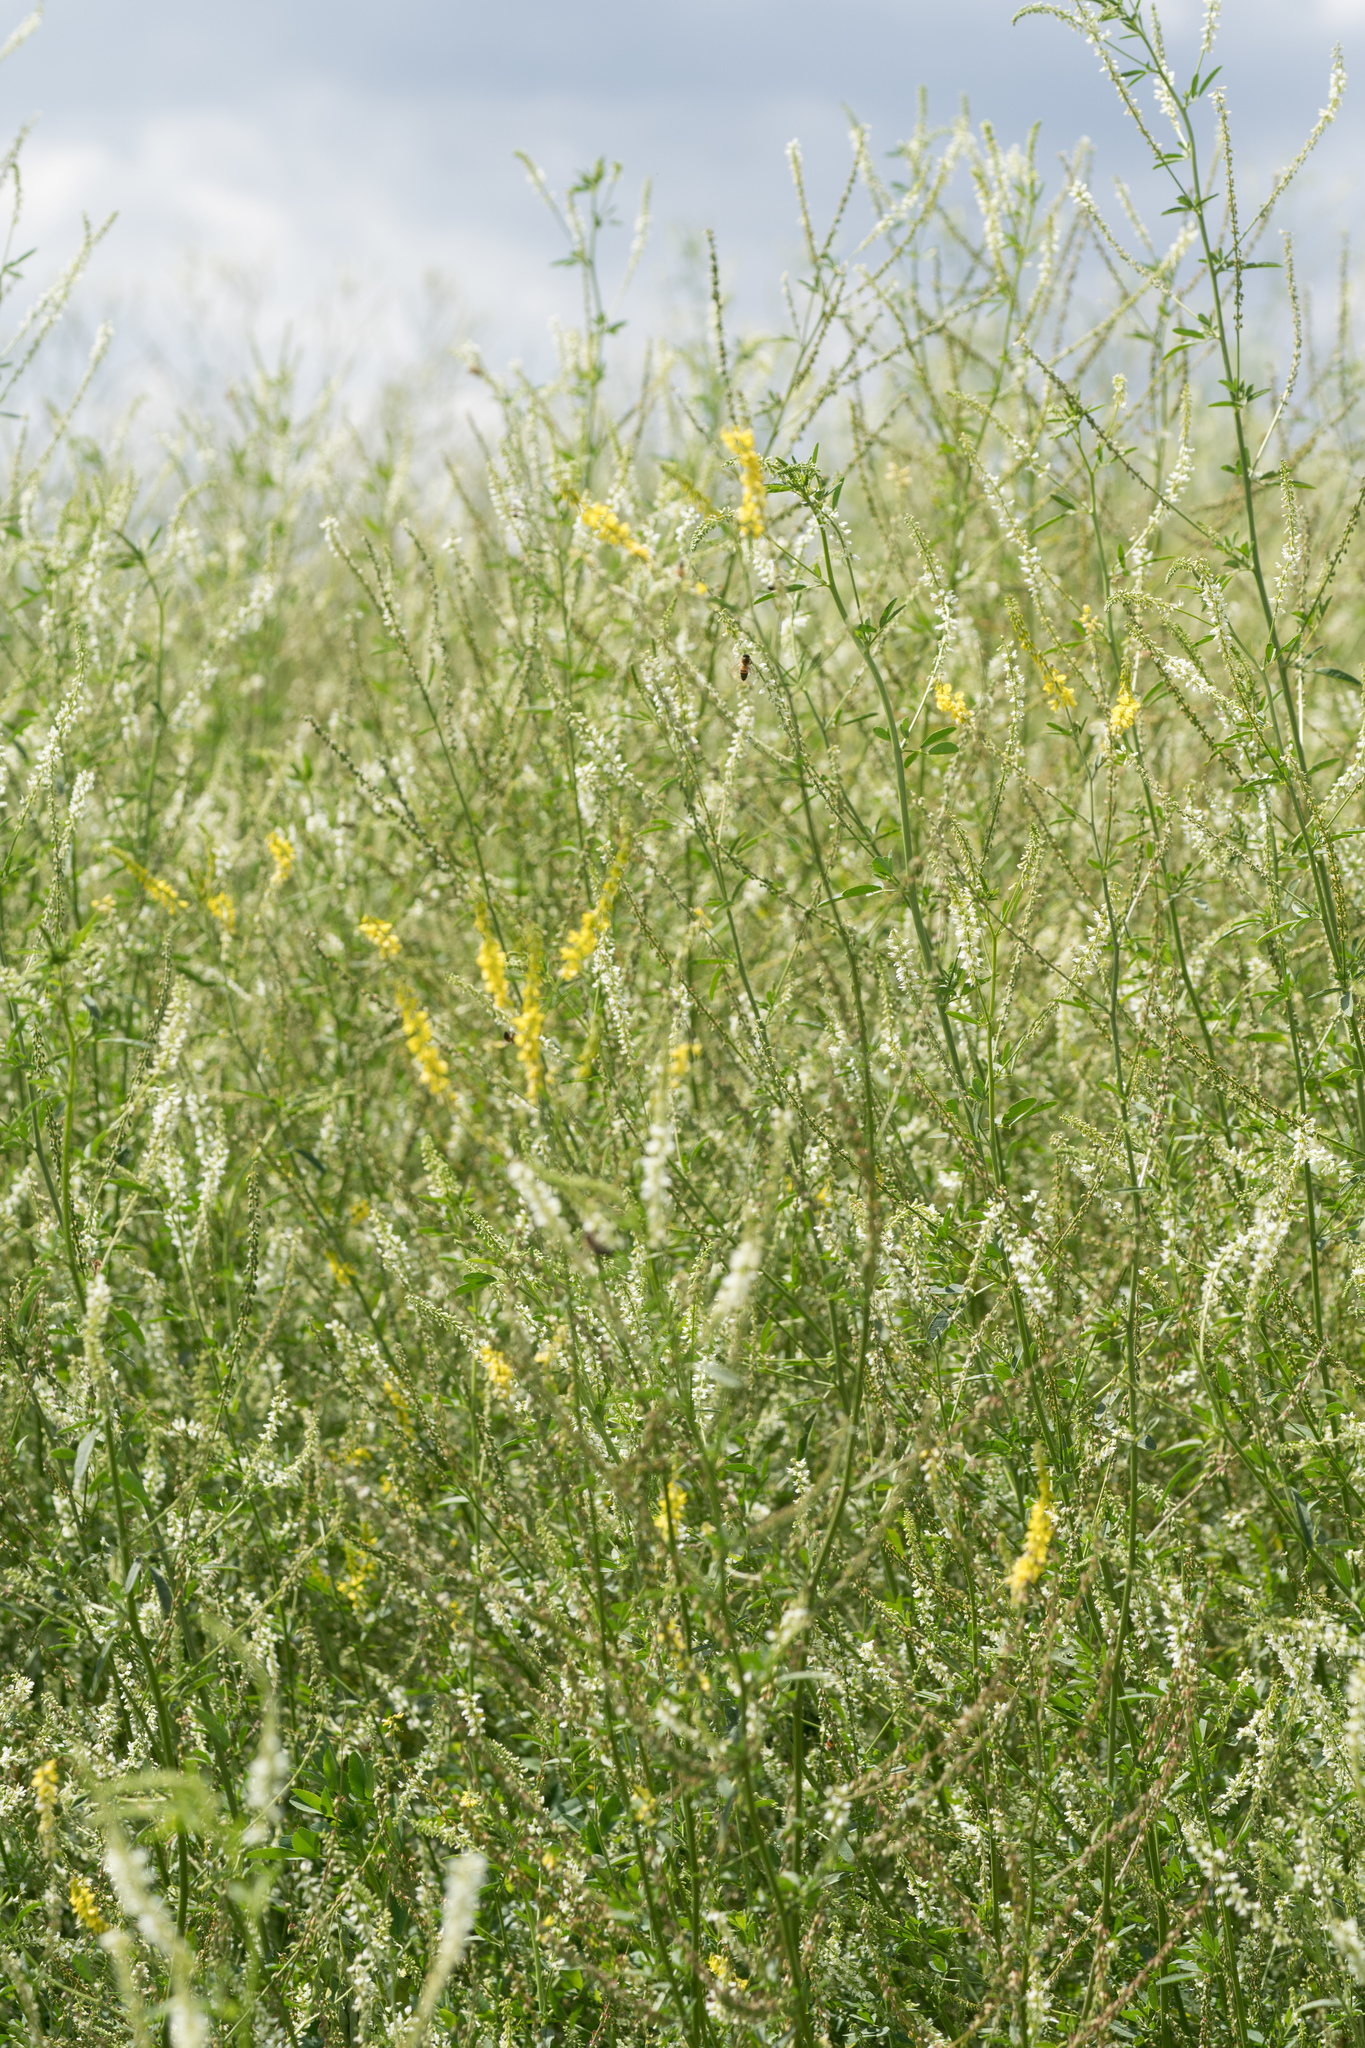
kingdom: Plantae
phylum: Tracheophyta
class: Magnoliopsida
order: Fabales
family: Fabaceae
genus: Melilotus
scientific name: Melilotus officinalis
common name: Sweetclover
